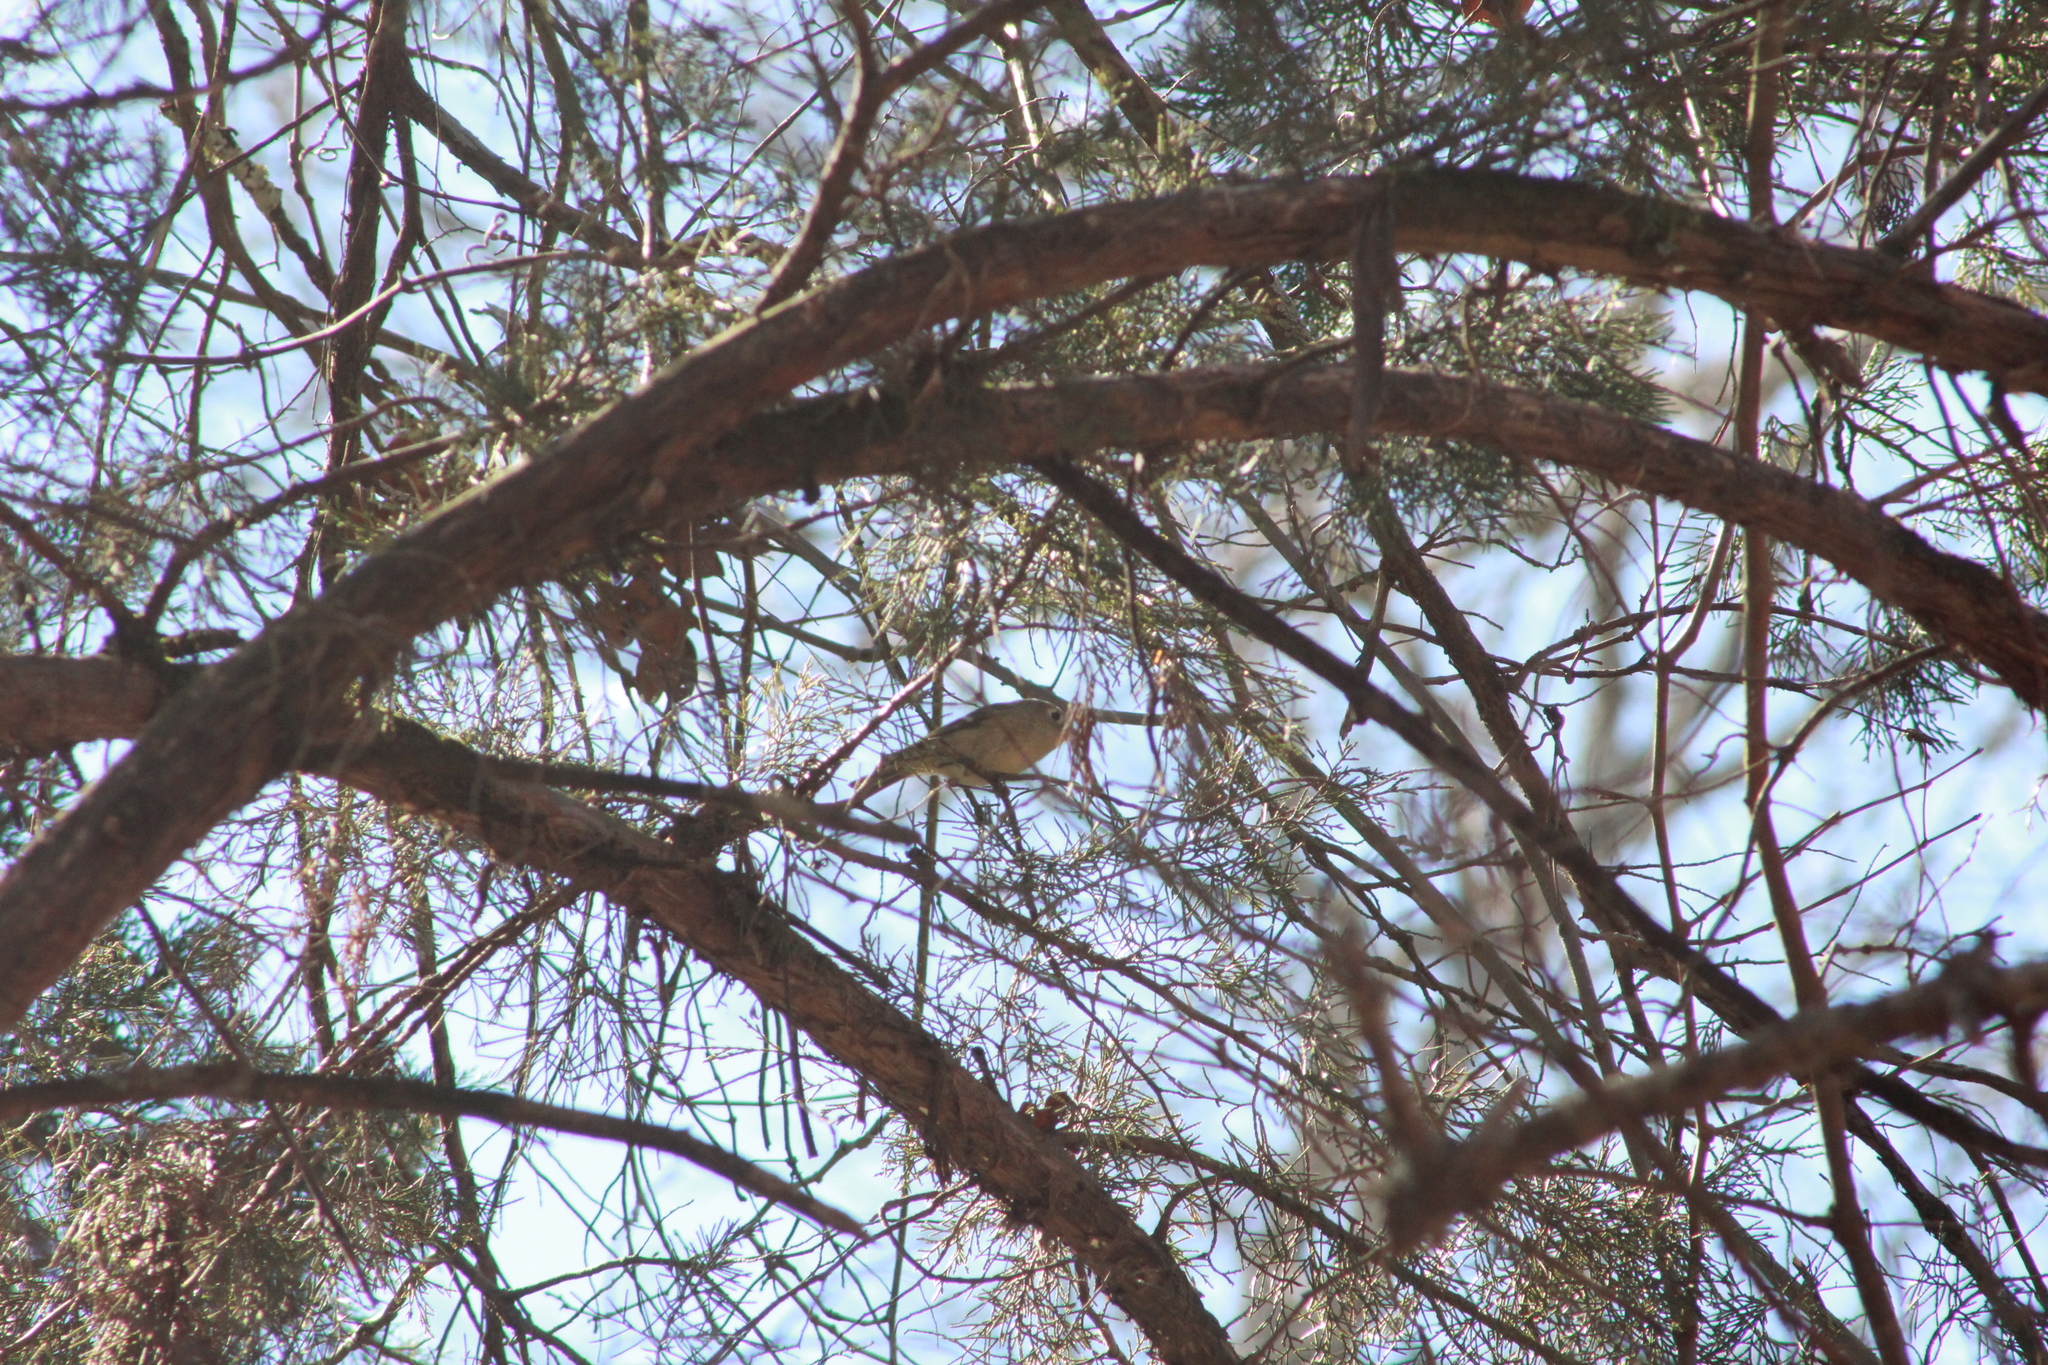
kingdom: Animalia
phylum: Chordata
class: Aves
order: Passeriformes
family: Regulidae
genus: Regulus
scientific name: Regulus calendula
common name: Ruby-crowned kinglet
